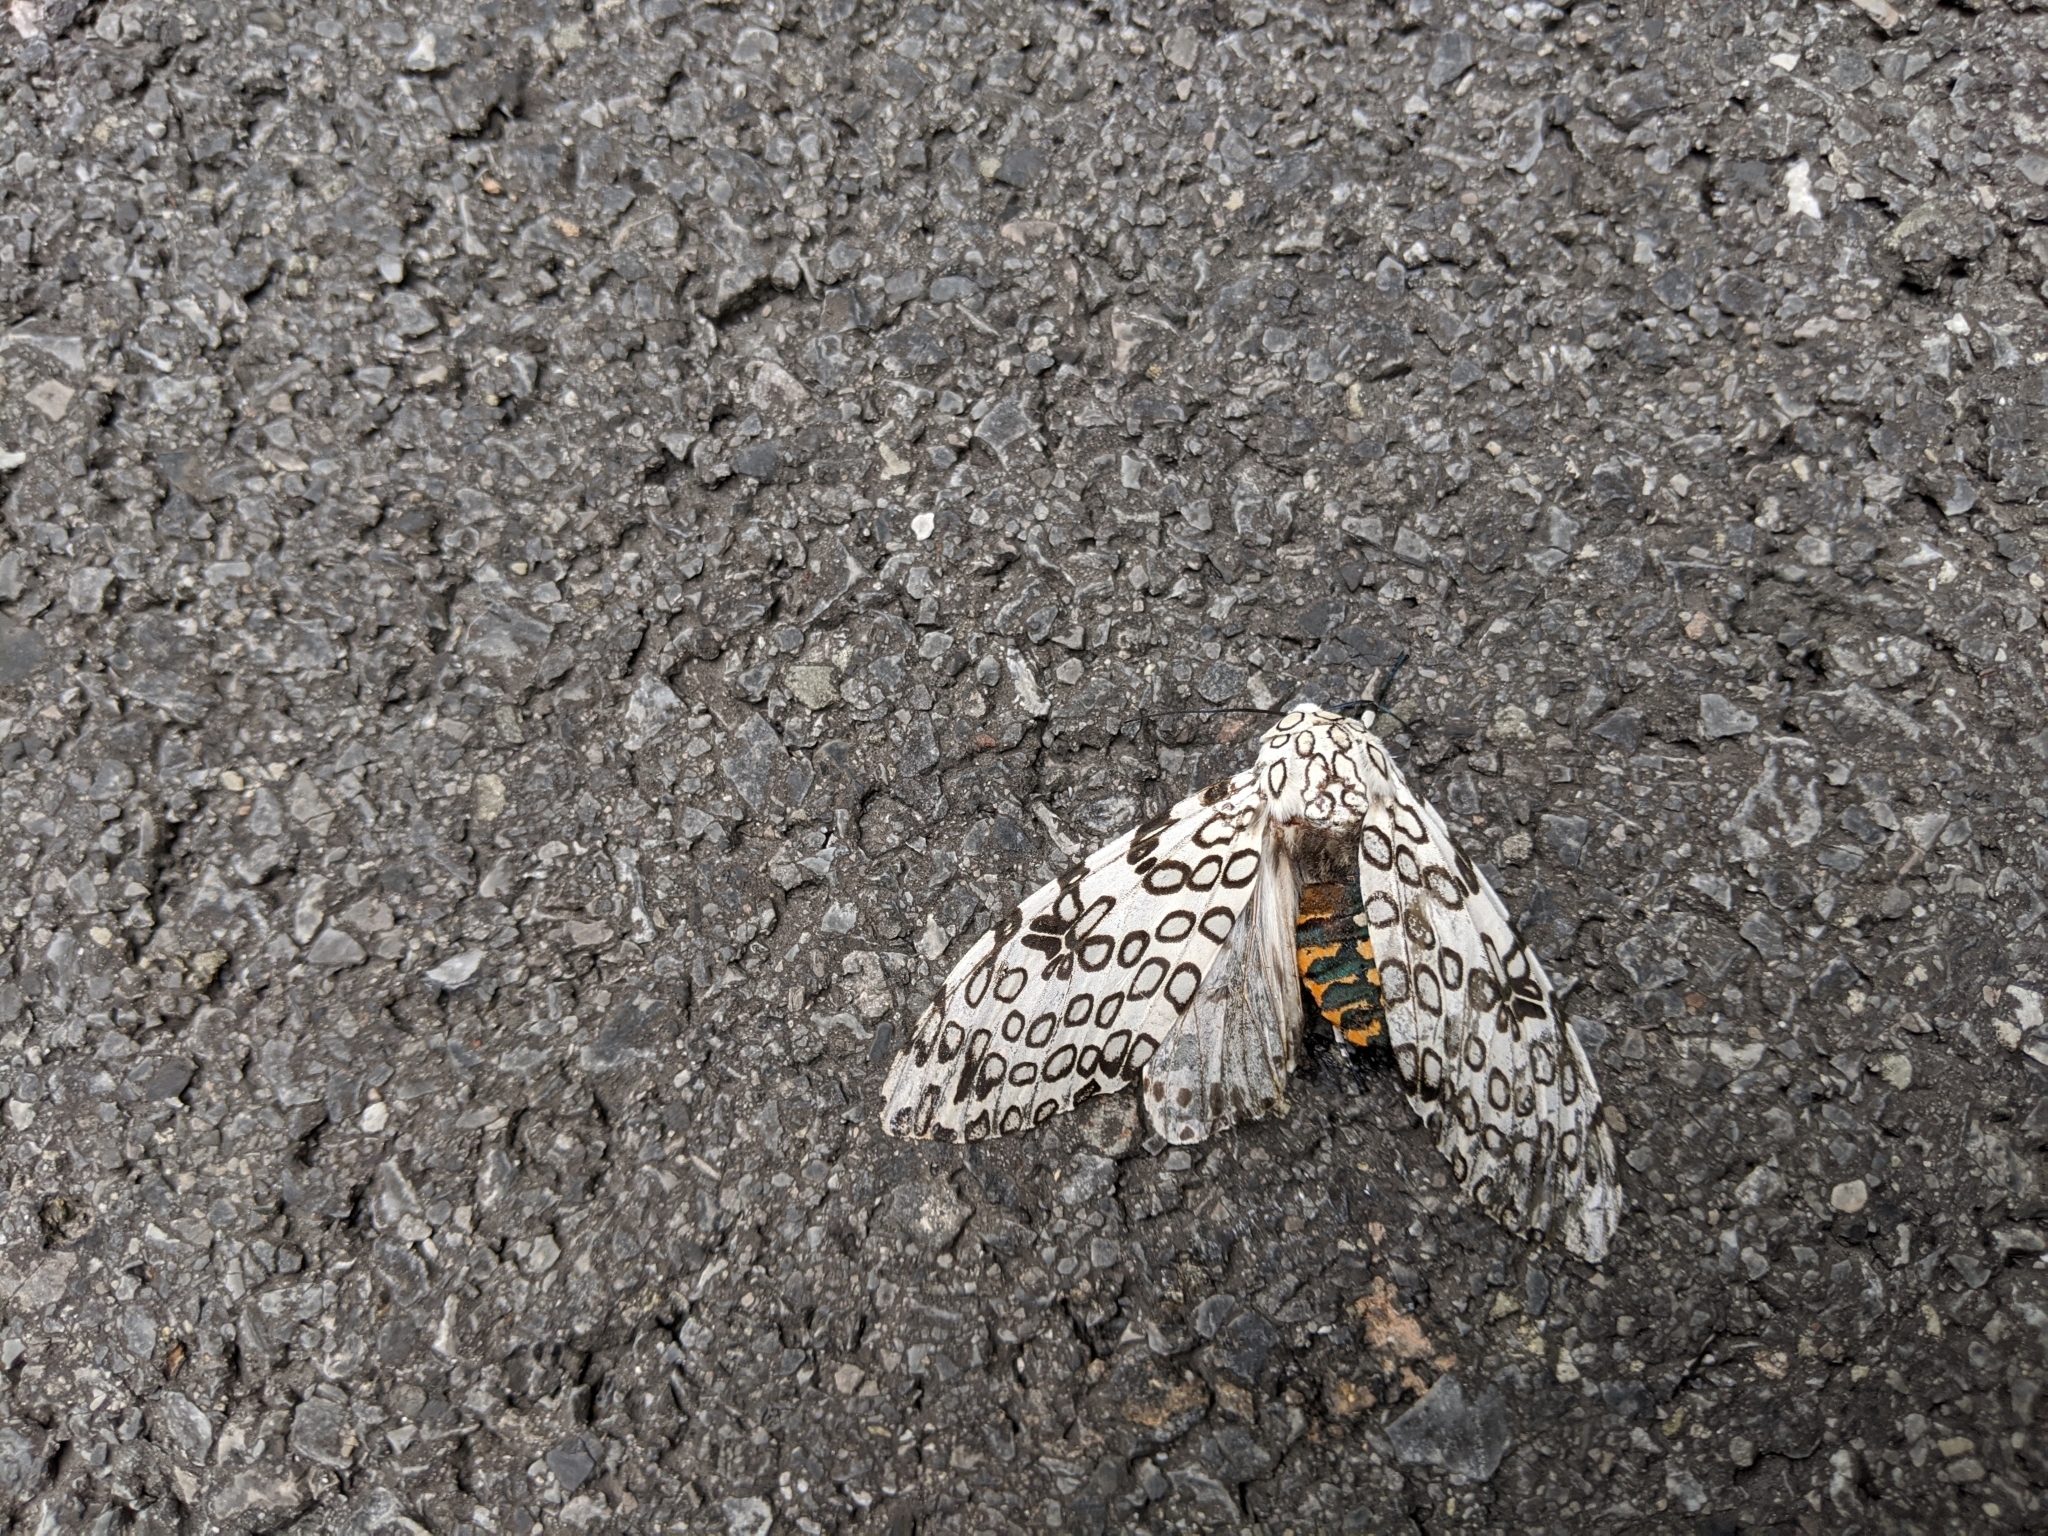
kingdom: Animalia
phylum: Arthropoda
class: Insecta
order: Lepidoptera
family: Erebidae
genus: Hypercompe
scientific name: Hypercompe scribonia
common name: Giant leopard moth
